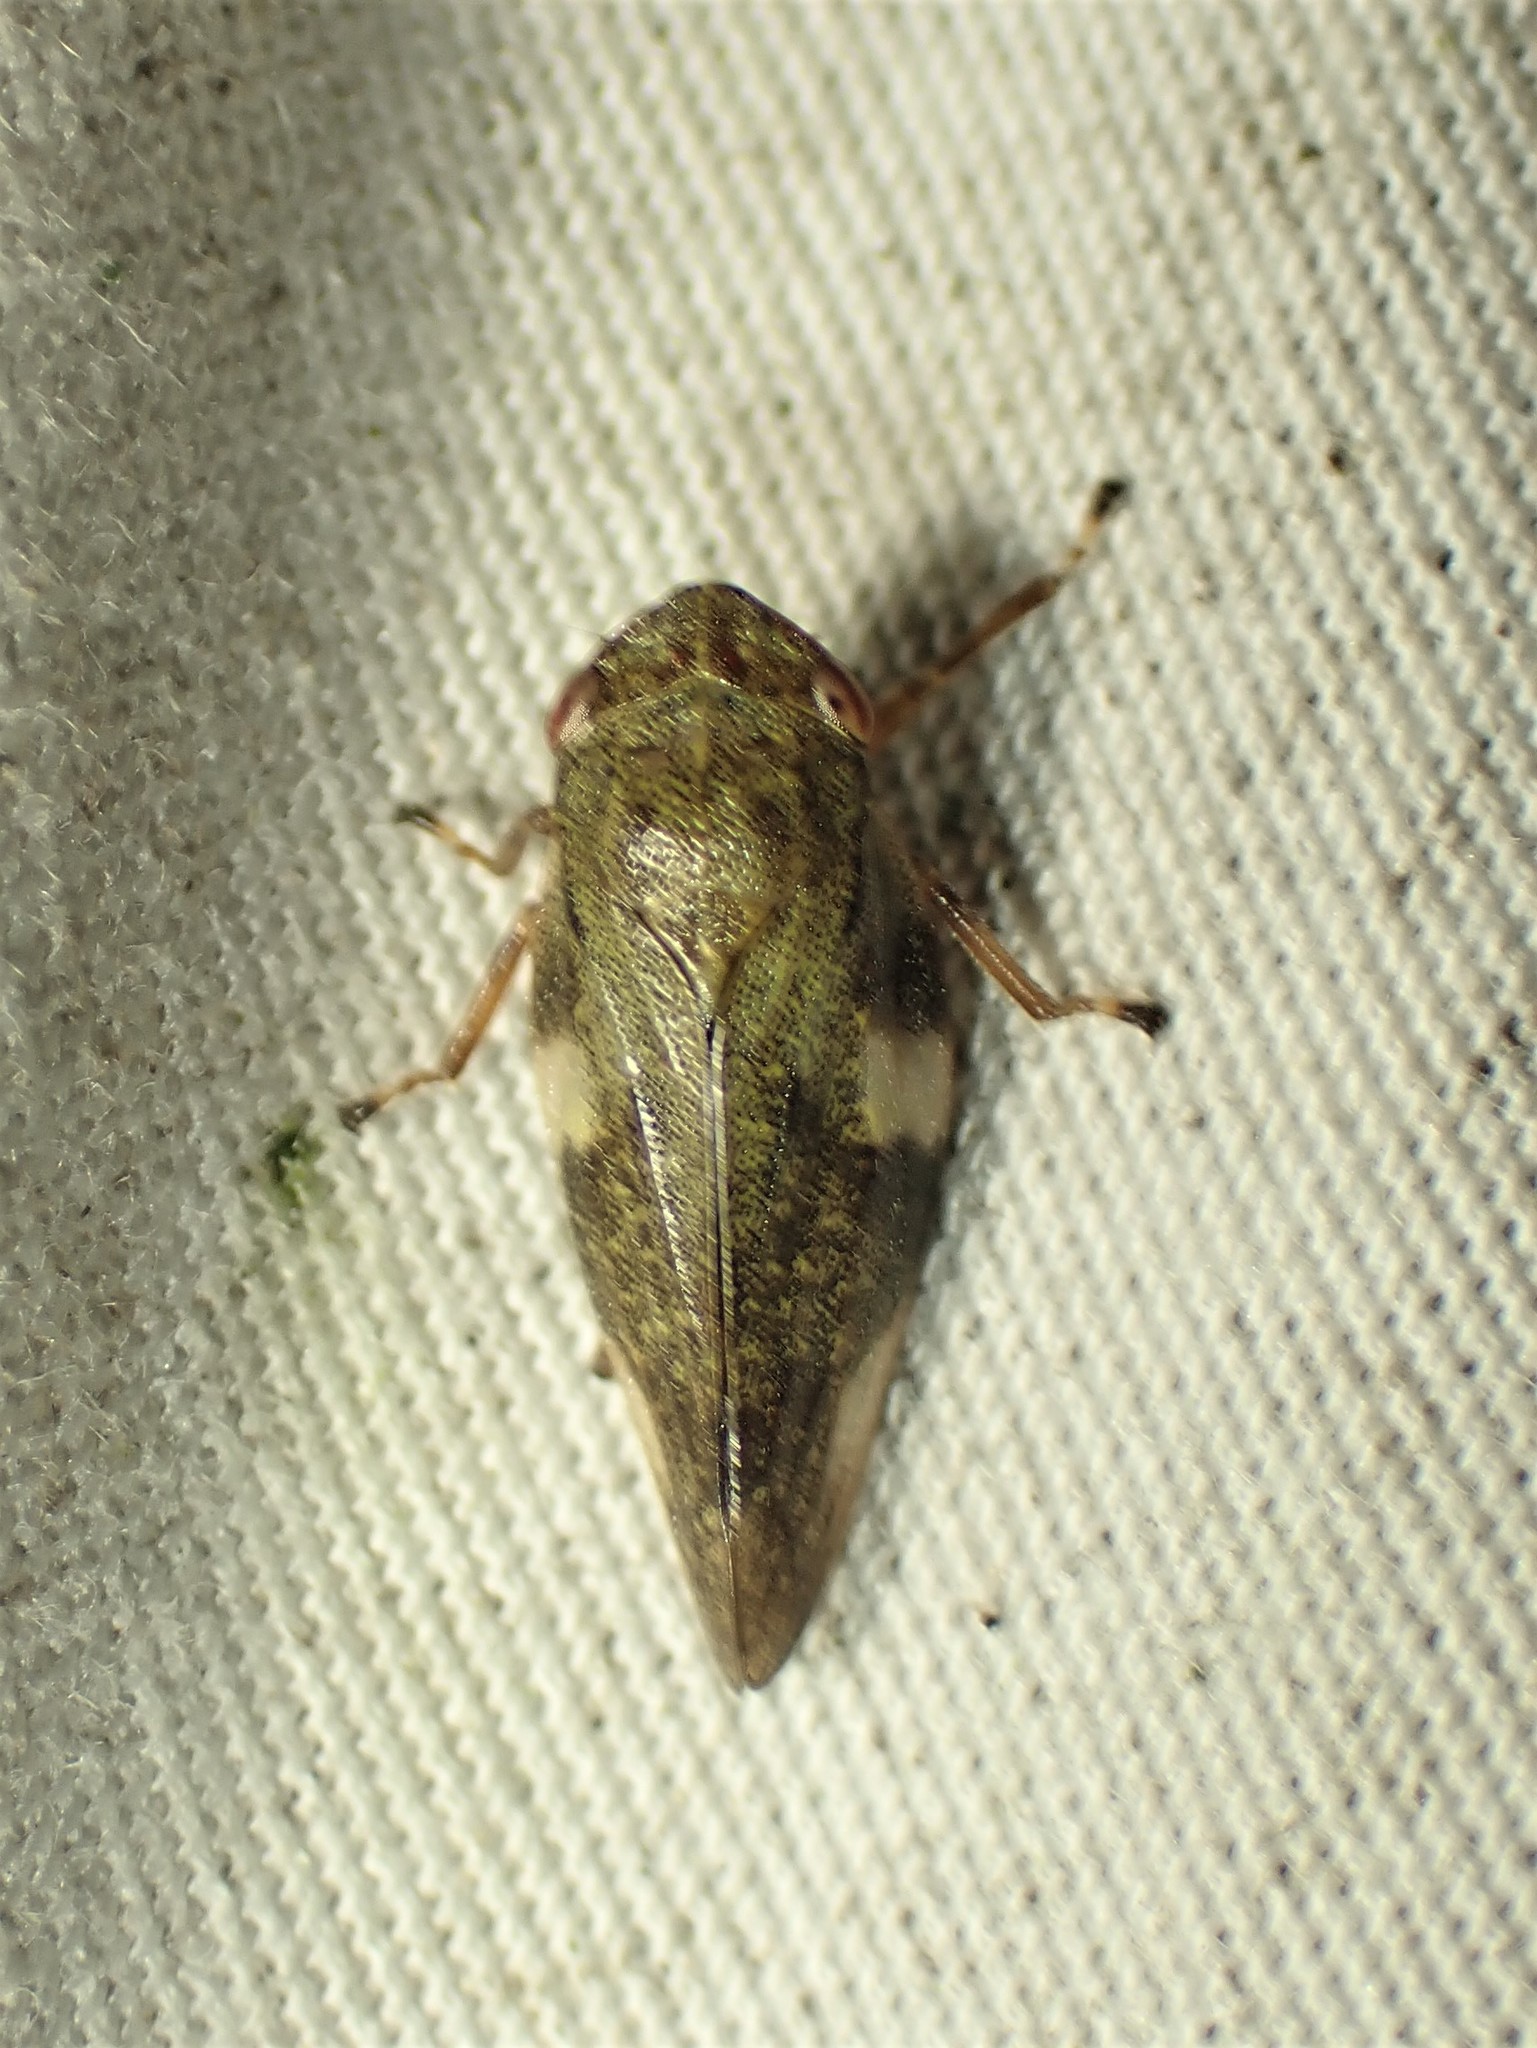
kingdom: Animalia
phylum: Arthropoda
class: Insecta
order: Hemiptera
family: Aphrophoridae
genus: Aphrophora
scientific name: Aphrophora alni
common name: European alder spittlebug
